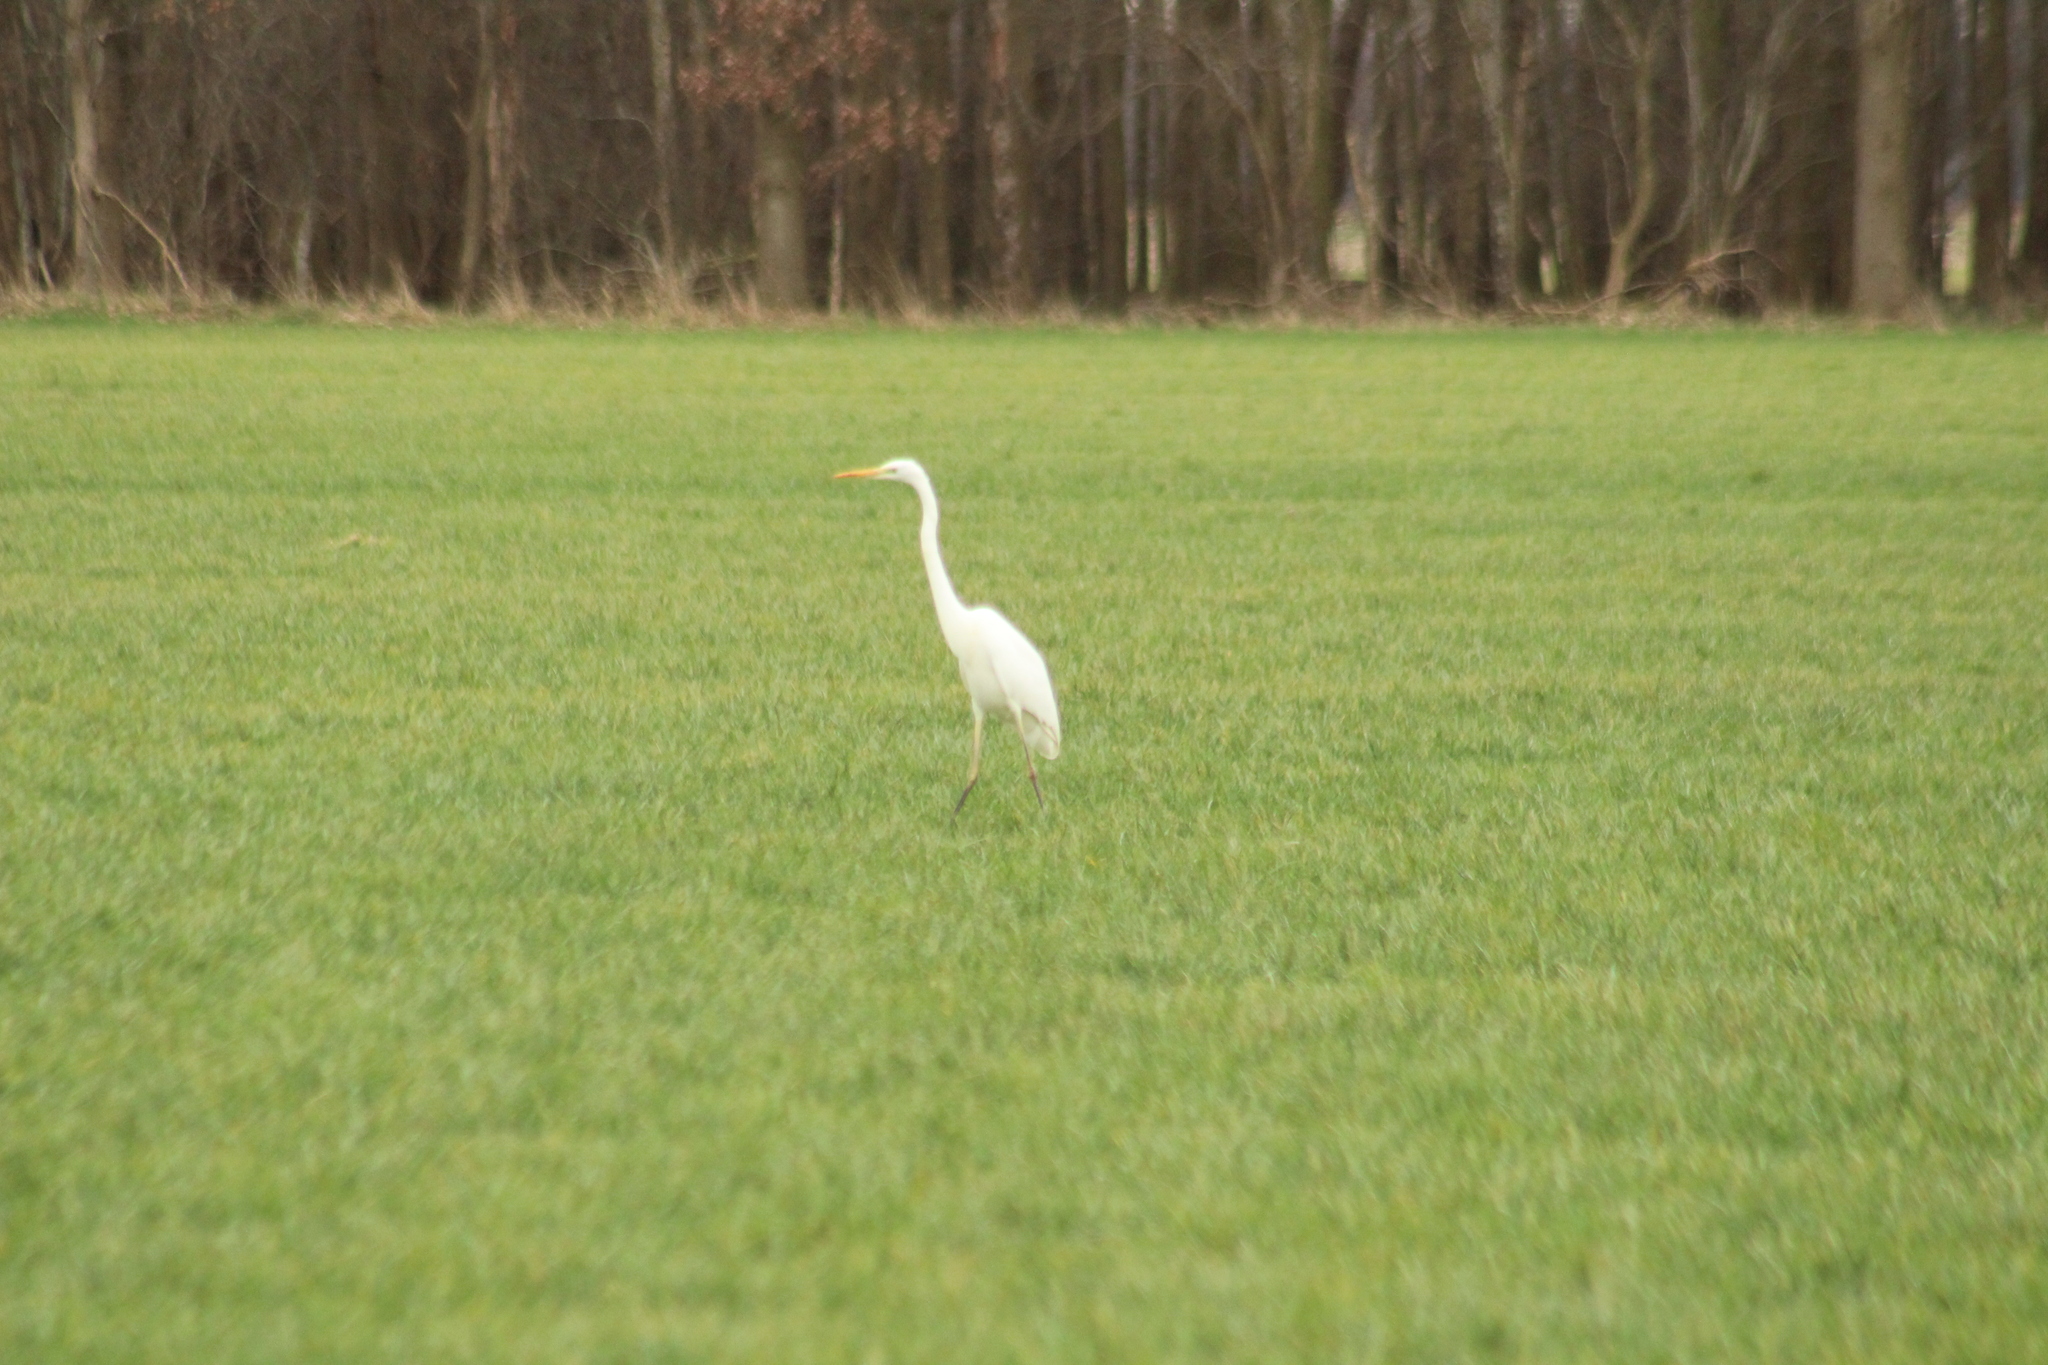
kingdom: Animalia
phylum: Chordata
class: Aves
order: Pelecaniformes
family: Ardeidae
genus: Ardea
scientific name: Ardea alba
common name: Great egret
